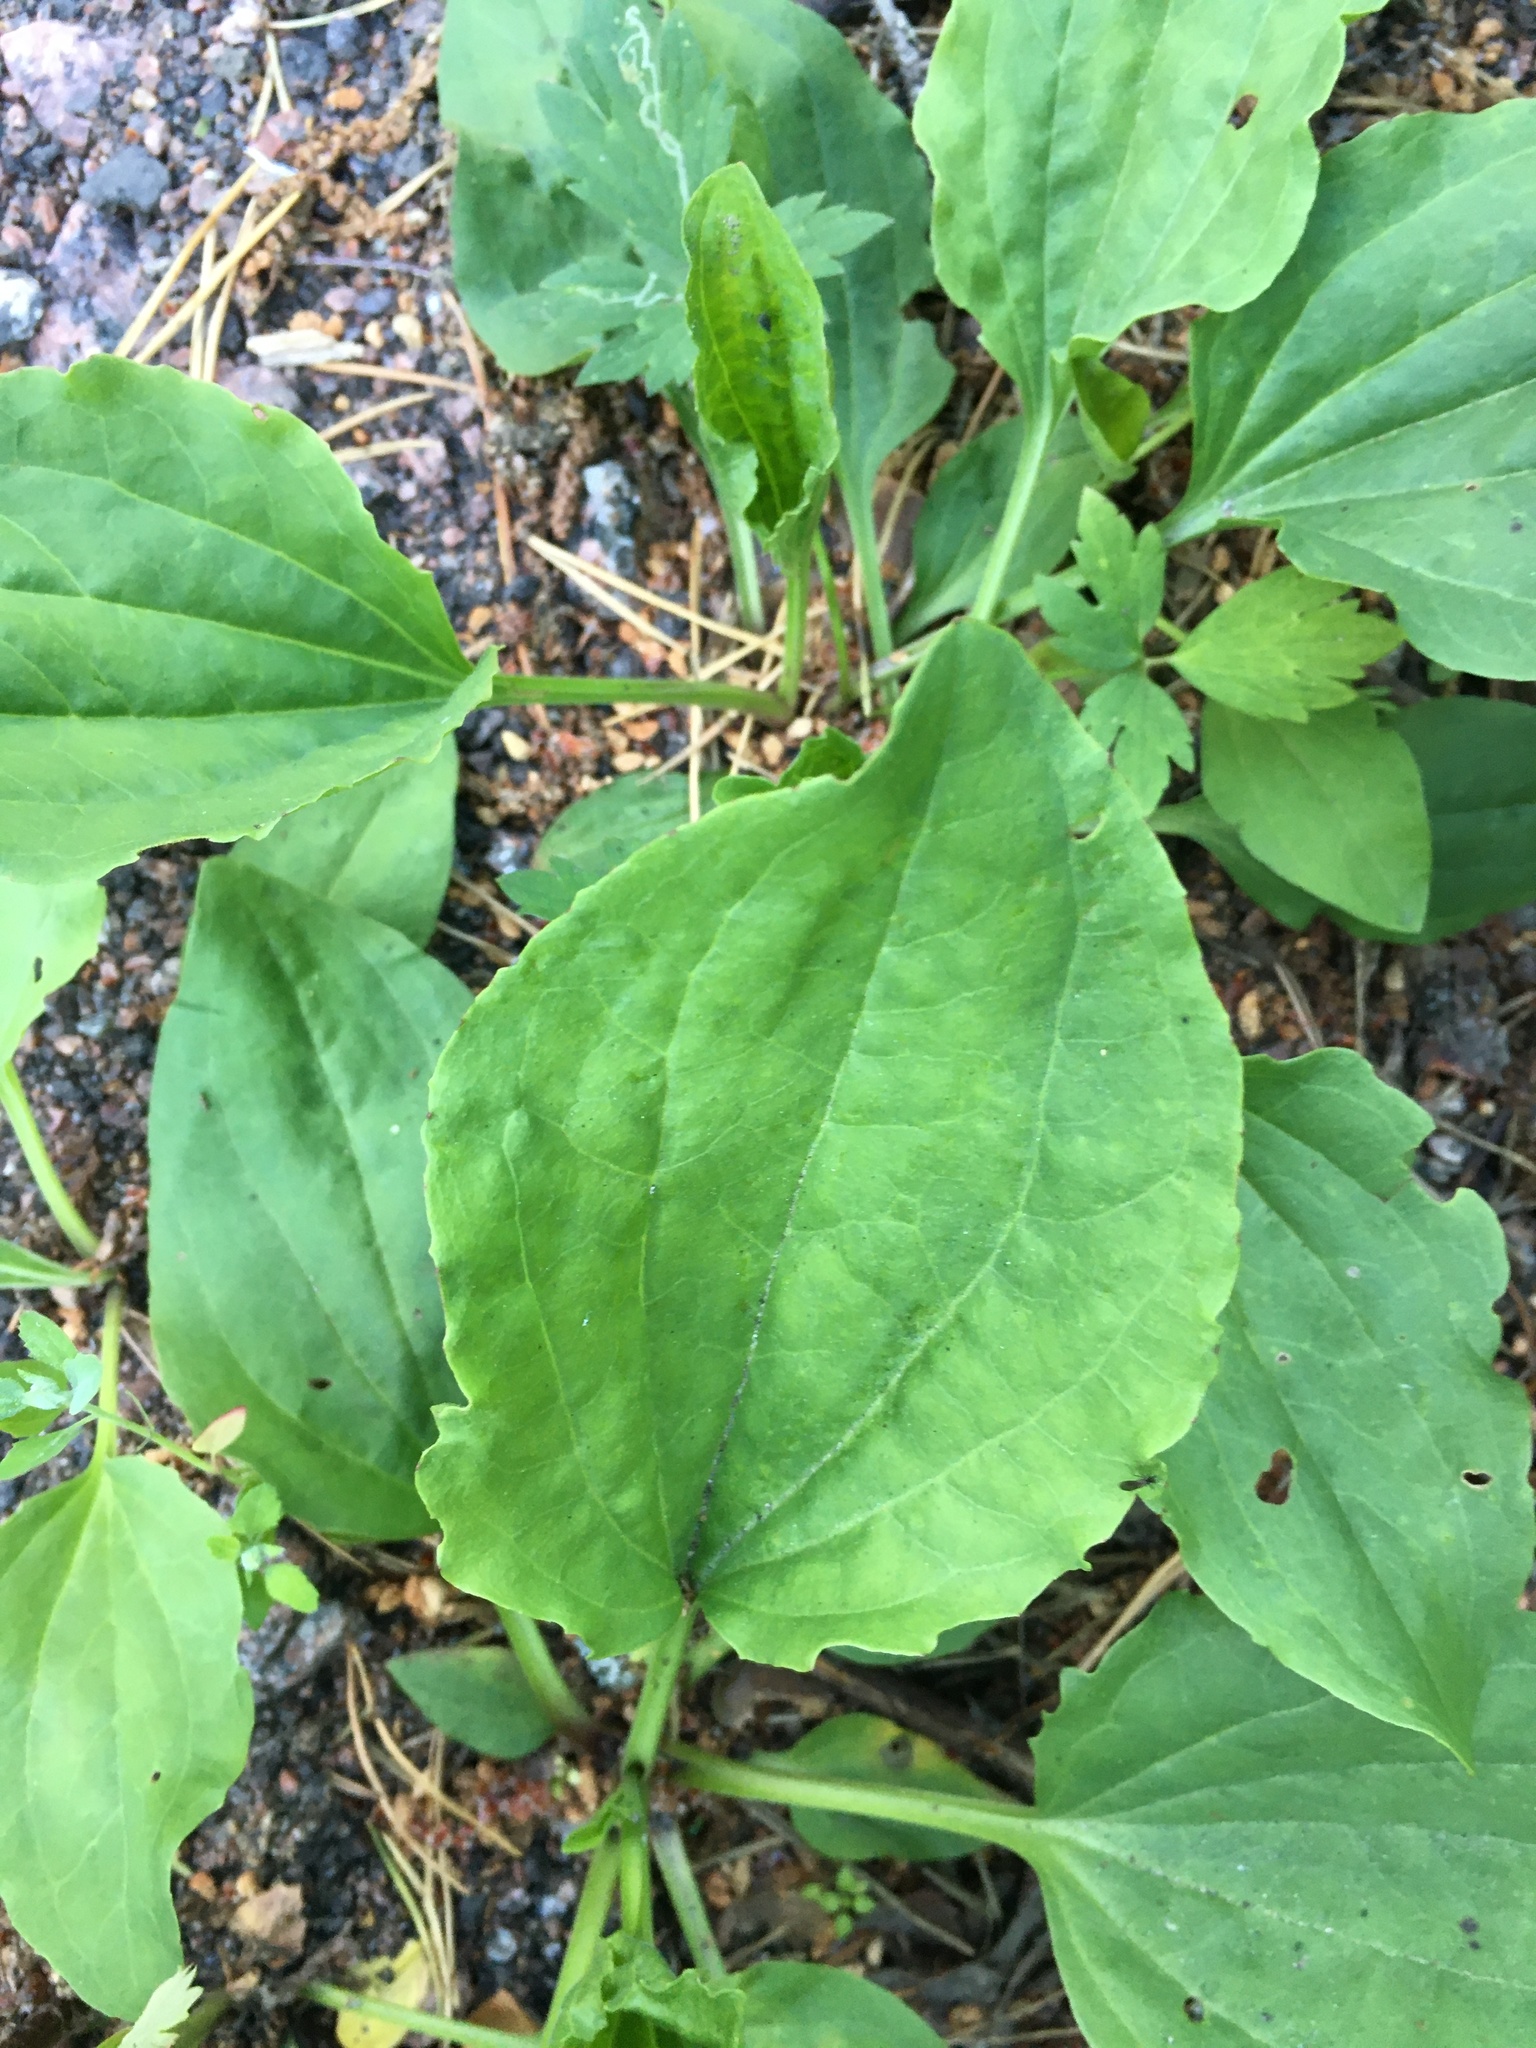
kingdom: Plantae
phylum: Tracheophyta
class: Magnoliopsida
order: Lamiales
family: Plantaginaceae
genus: Plantago
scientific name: Plantago major
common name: Common plantain
